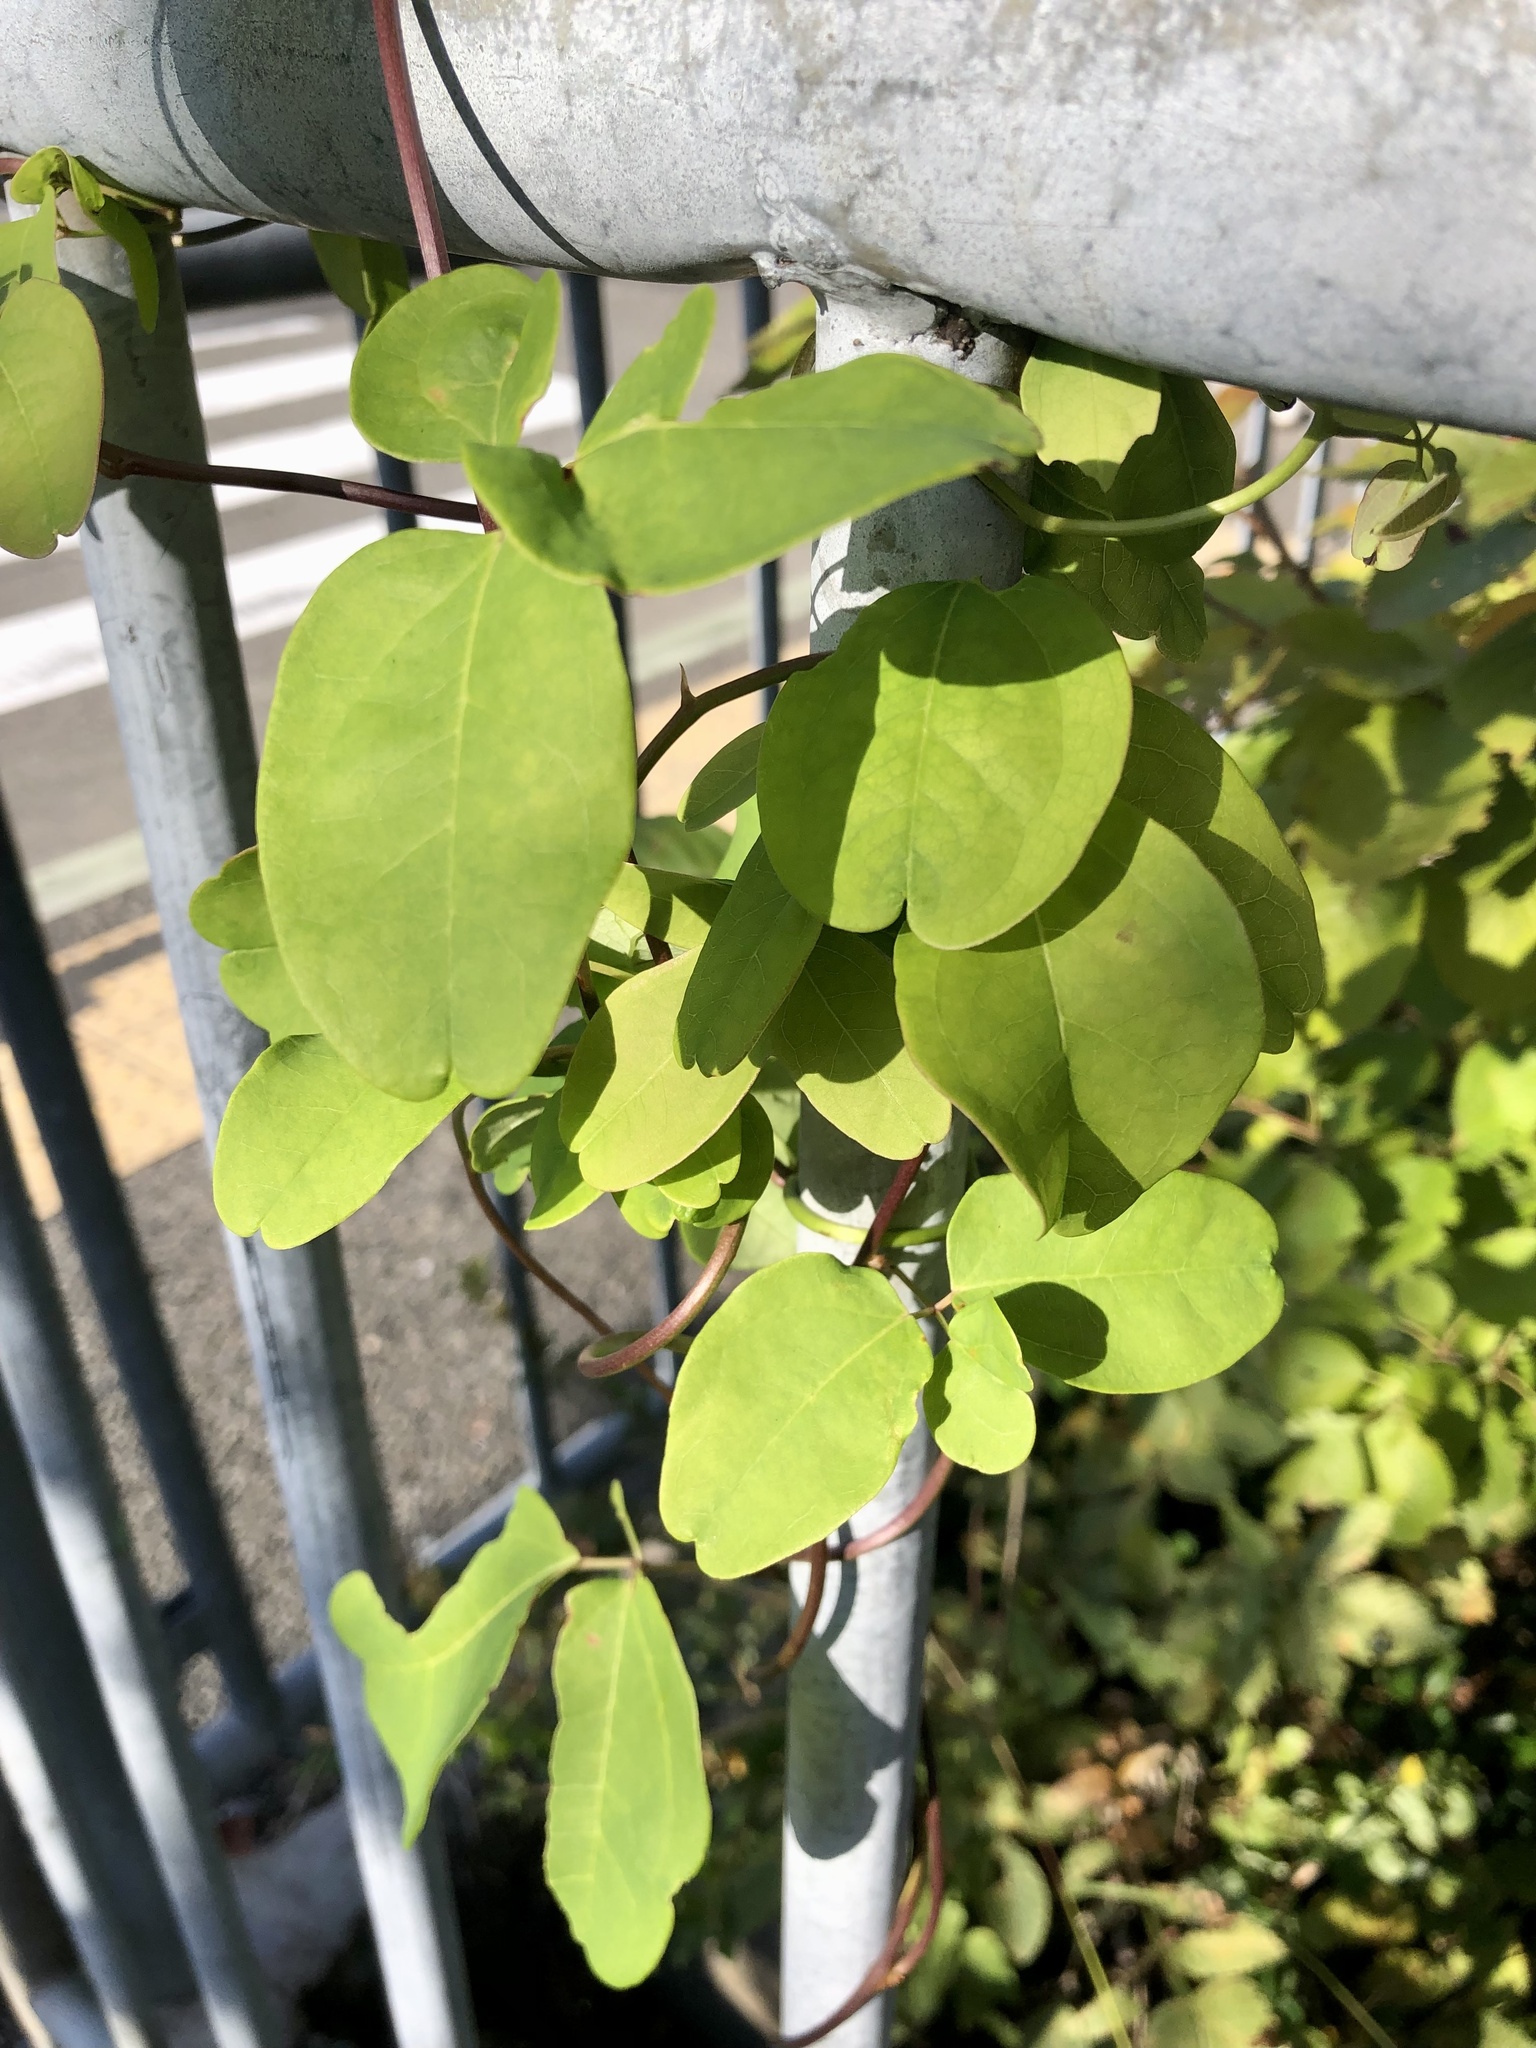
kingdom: Plantae
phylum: Tracheophyta
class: Magnoliopsida
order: Gentianales
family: Rubiaceae
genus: Paederia
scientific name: Paederia foetida
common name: Stinkvine
